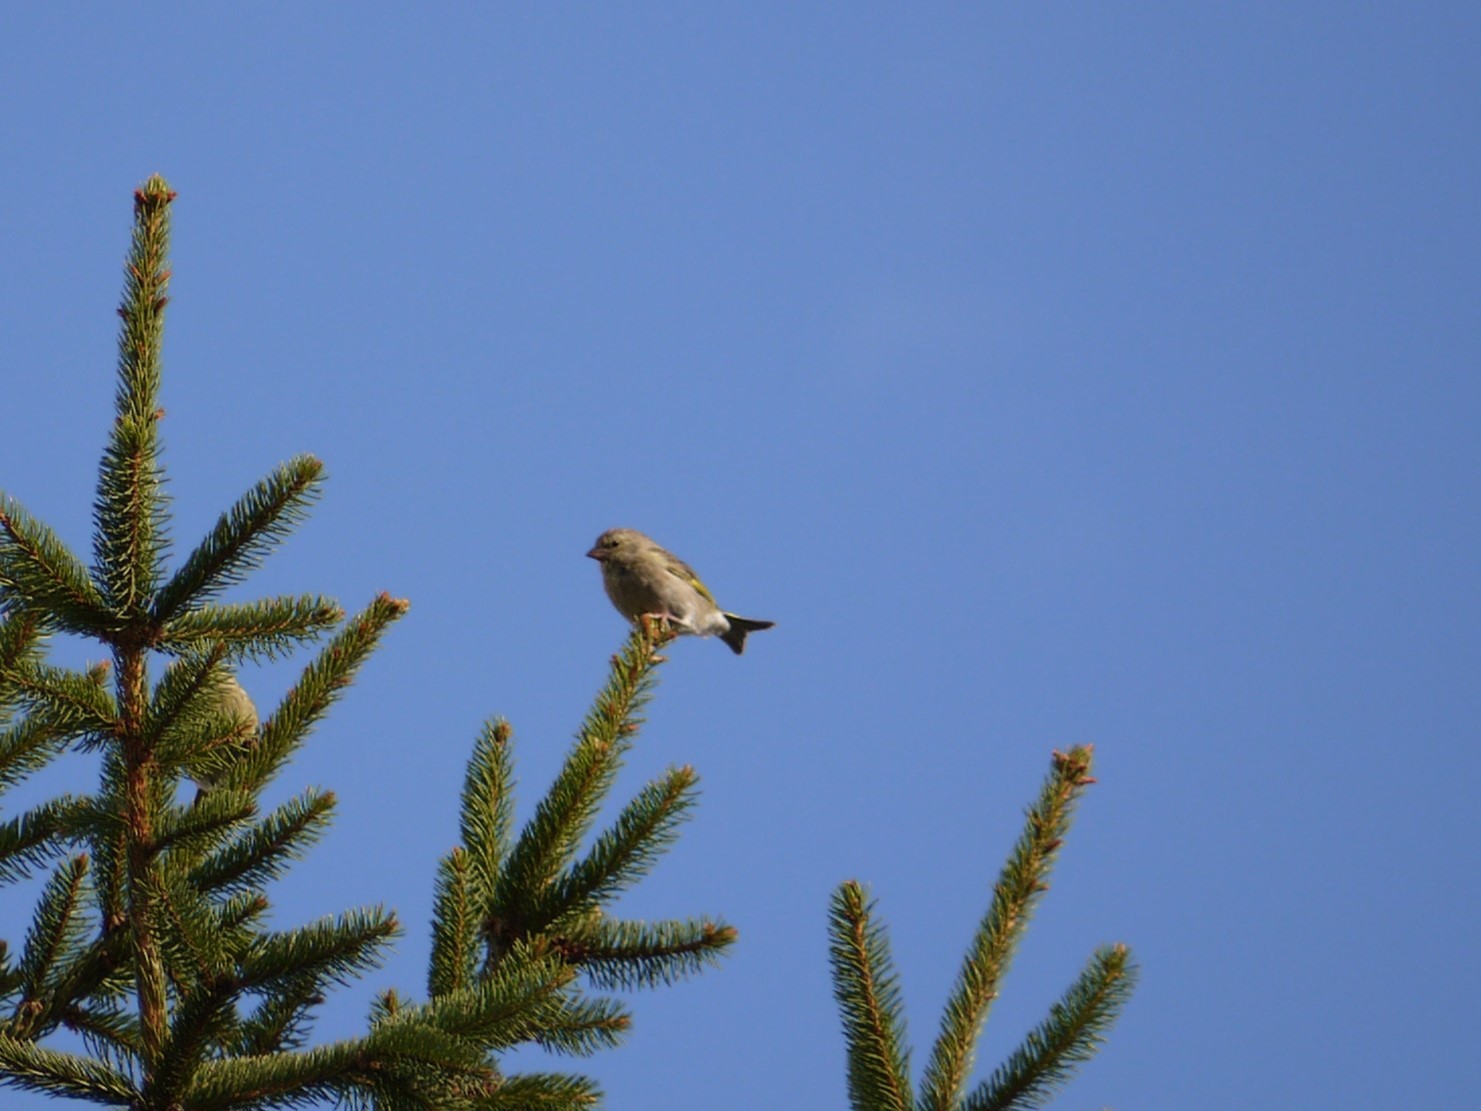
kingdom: Plantae
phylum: Tracheophyta
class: Liliopsida
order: Poales
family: Poaceae
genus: Chloris
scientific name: Chloris chloris
